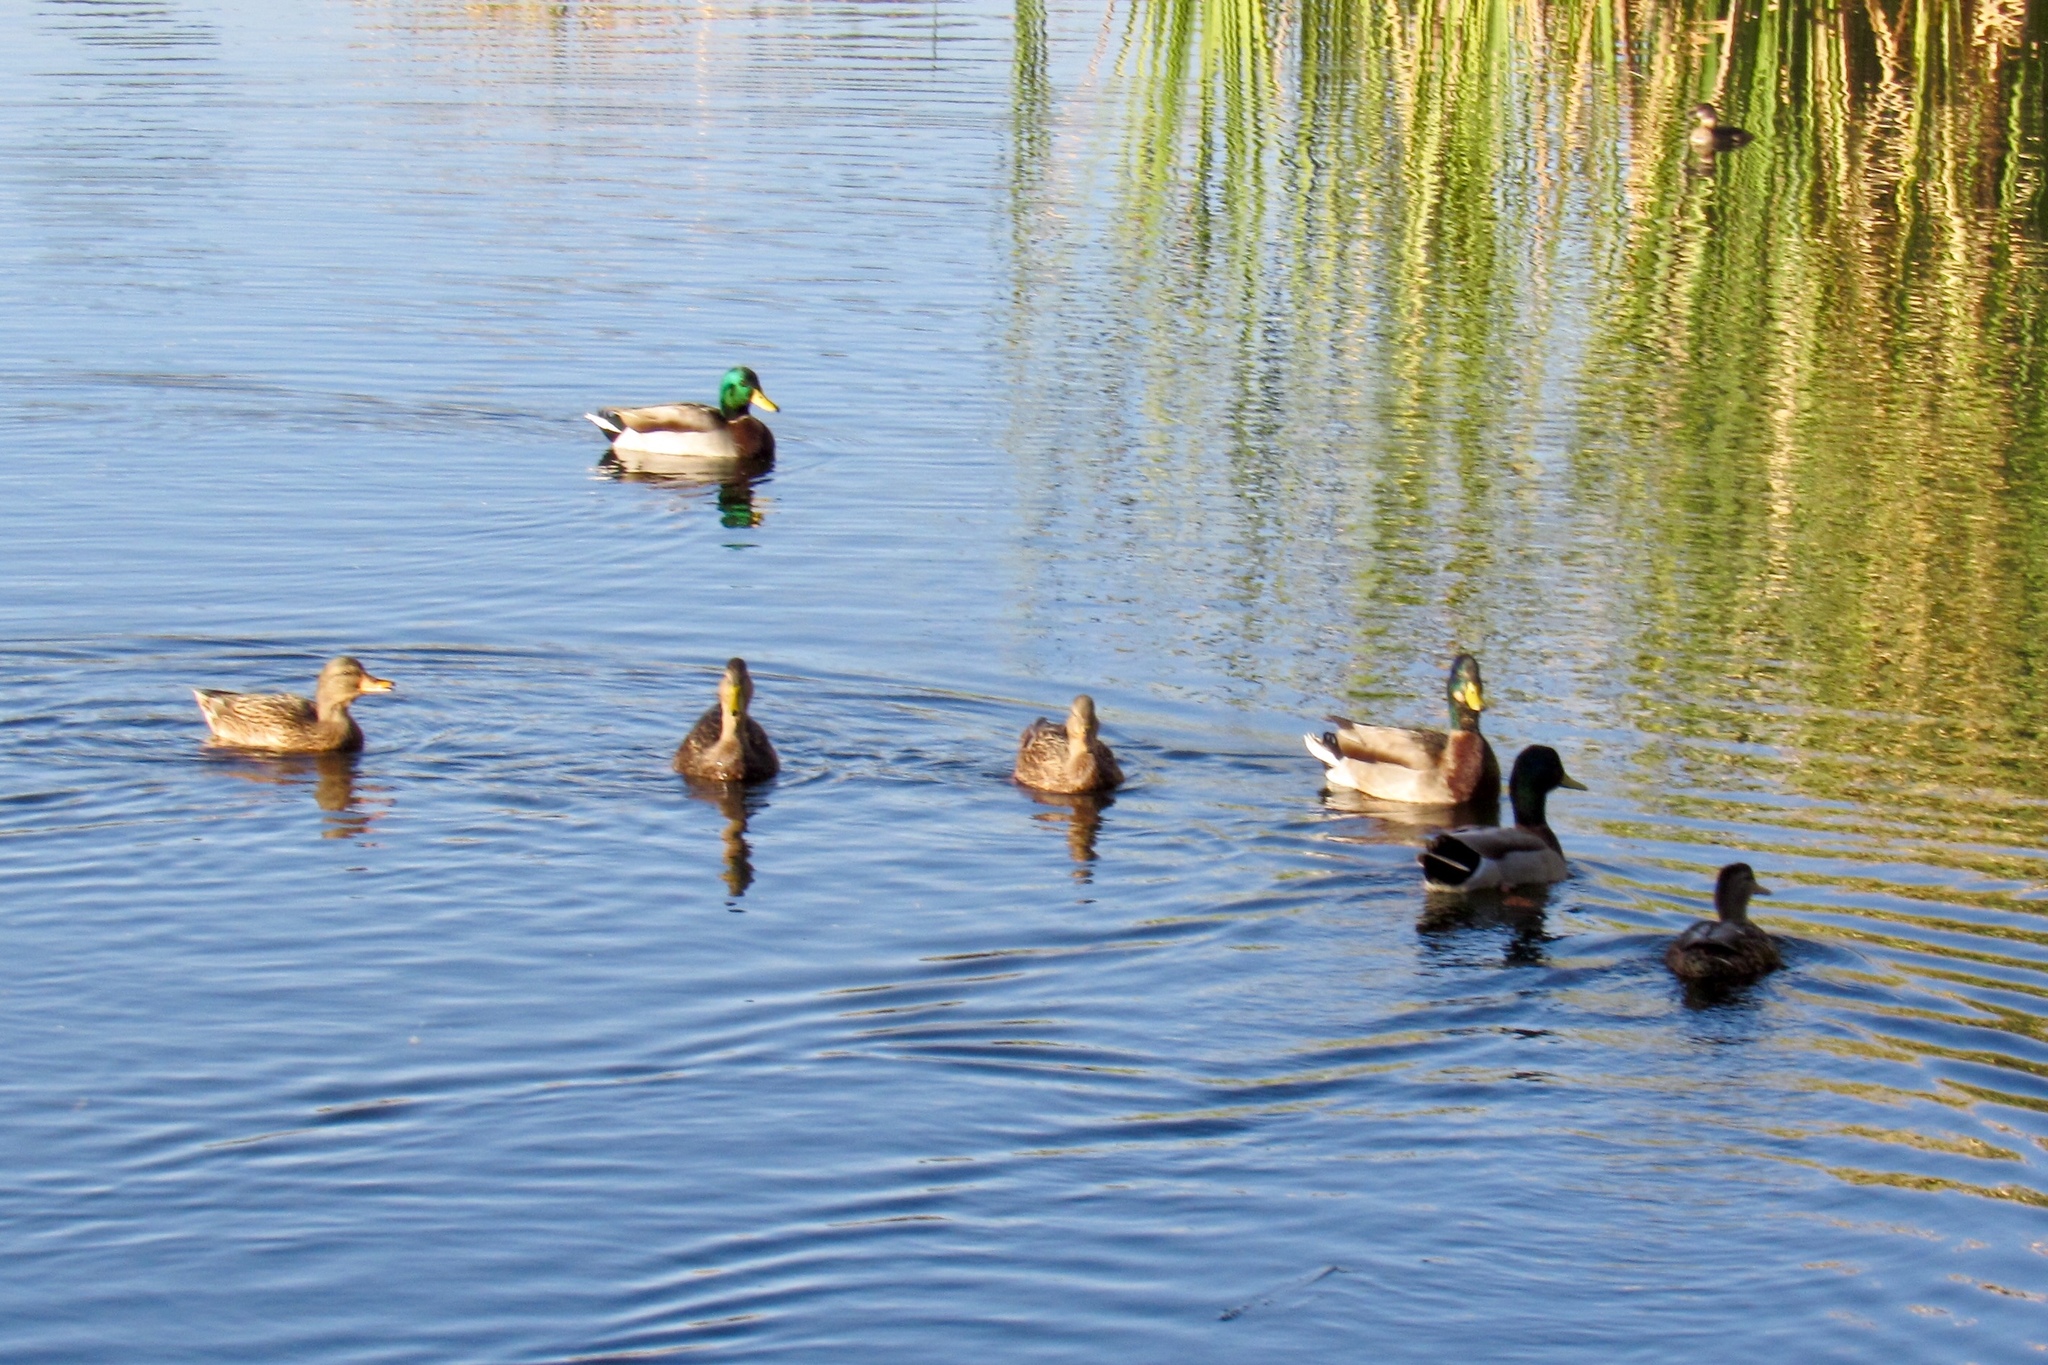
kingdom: Animalia
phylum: Chordata
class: Aves
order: Anseriformes
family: Anatidae
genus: Anas
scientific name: Anas platyrhynchos
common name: Mallard
